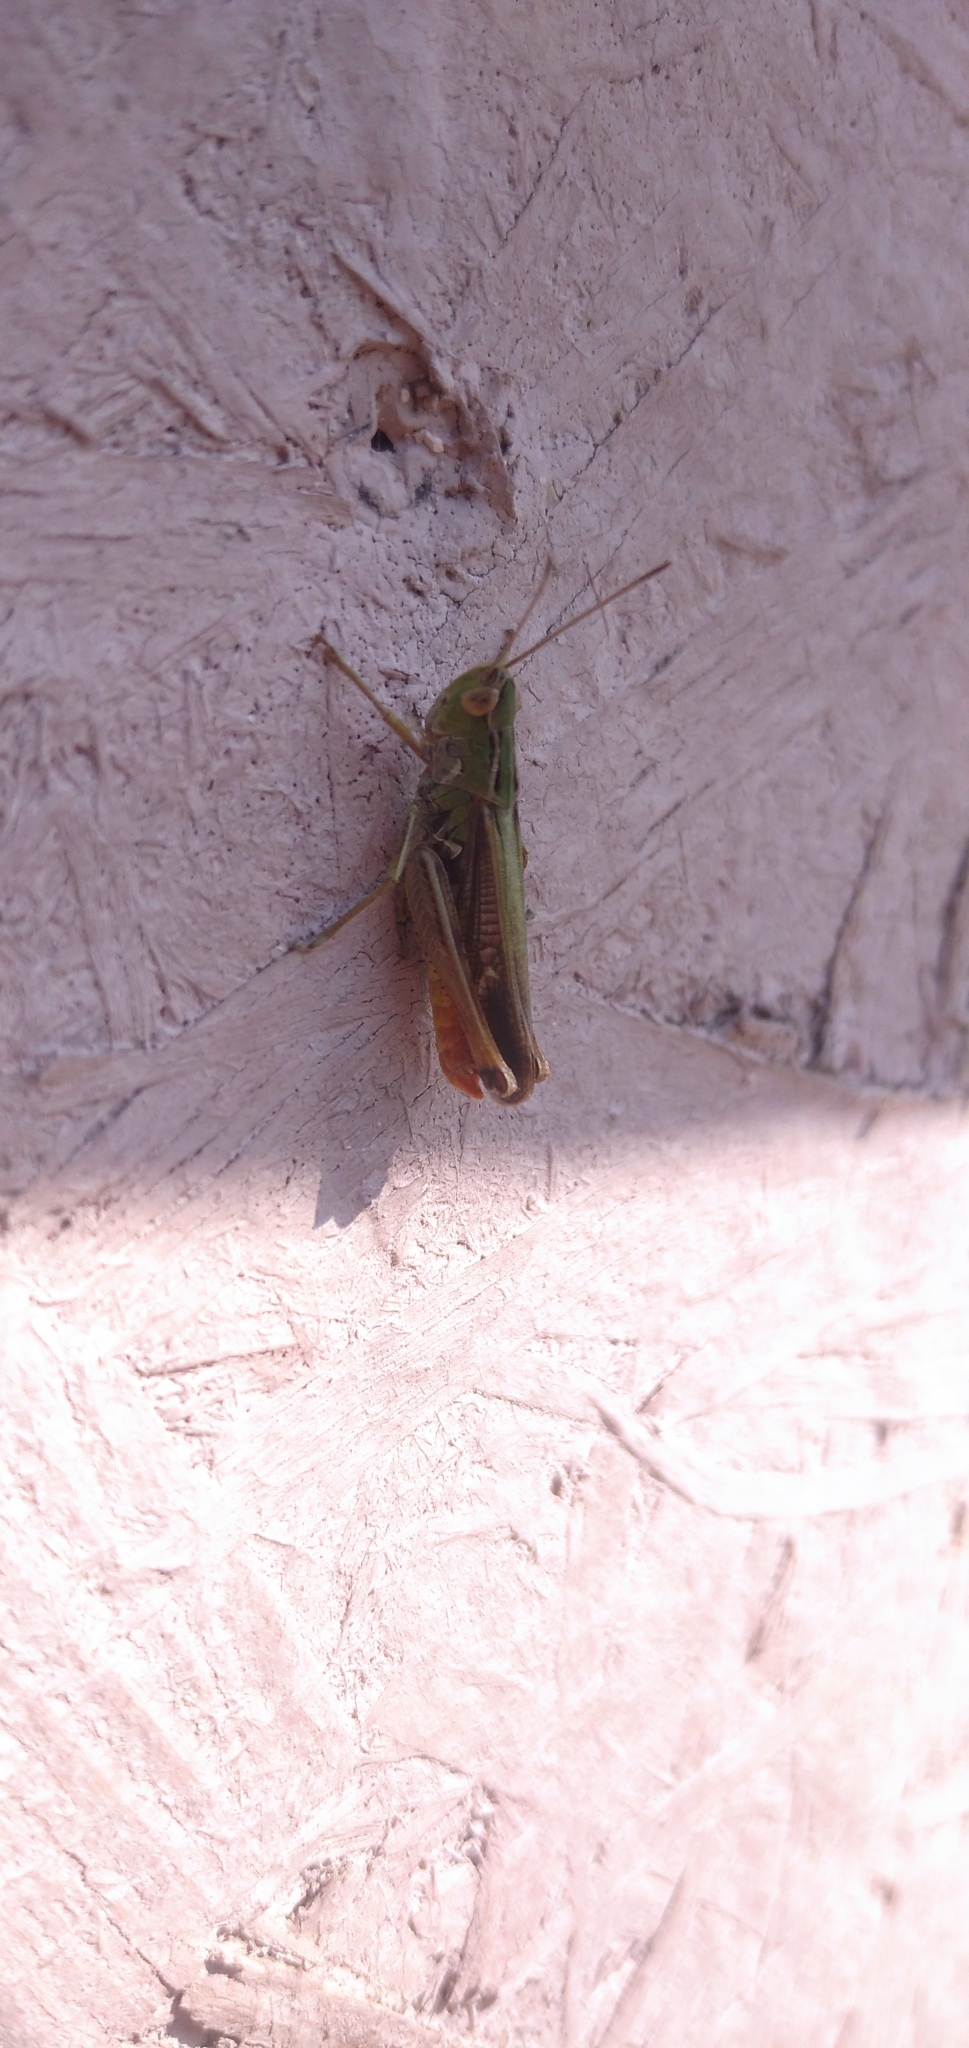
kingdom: Animalia
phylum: Arthropoda
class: Insecta
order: Orthoptera
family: Acrididae
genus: Stenobothrus
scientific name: Stenobothrus lineatus
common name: Stripe-winged grasshopper
